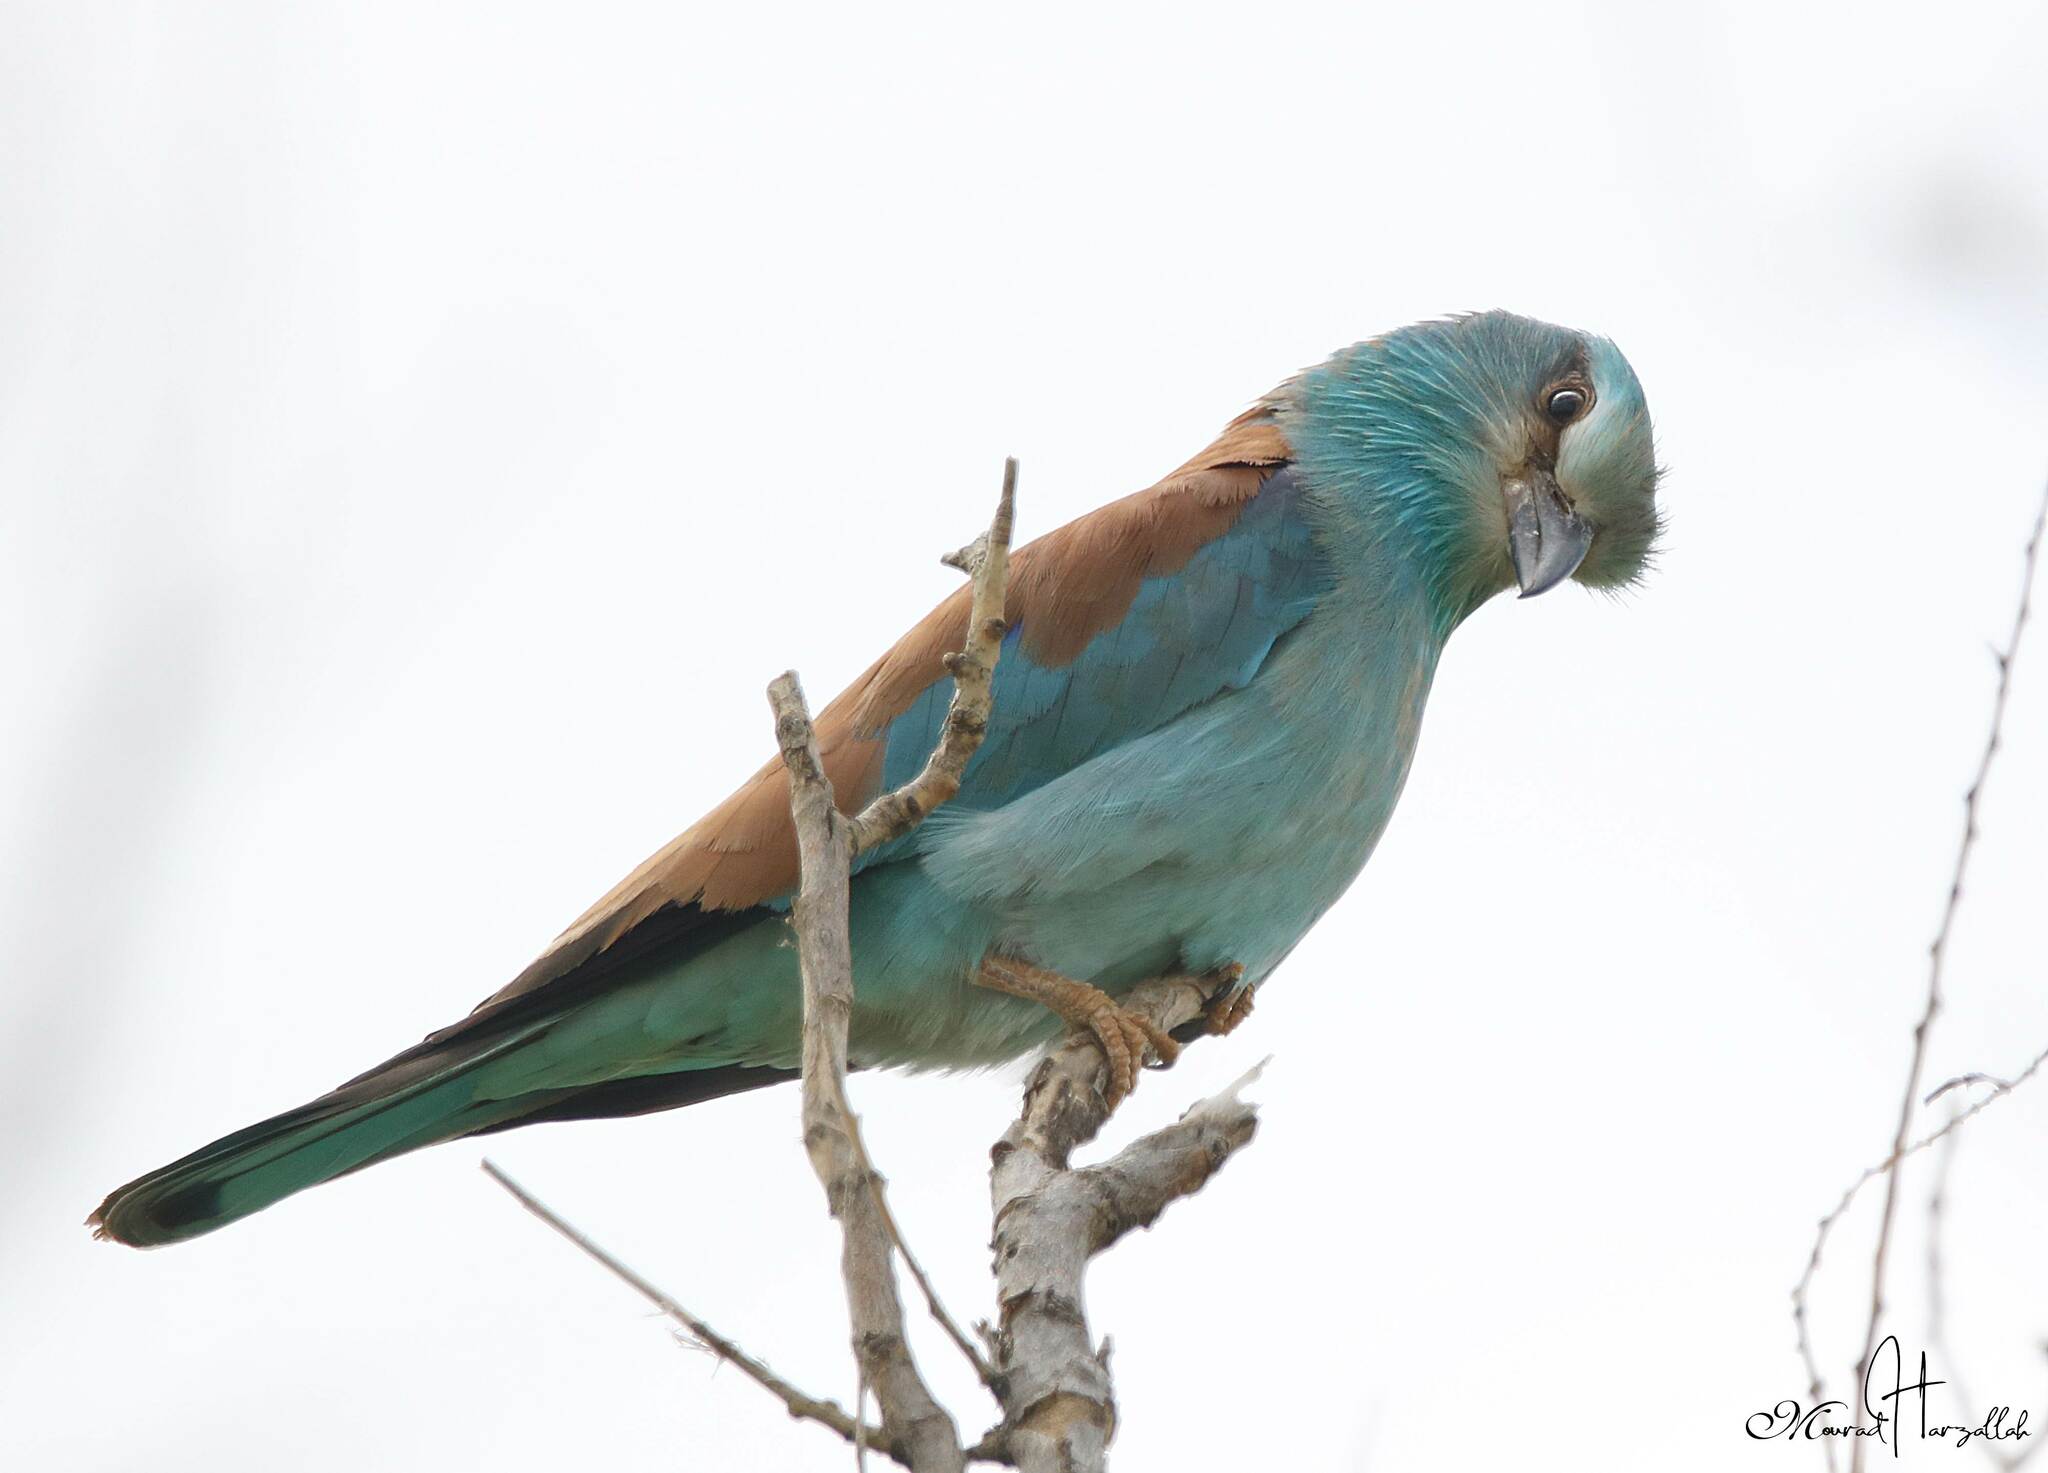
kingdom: Animalia
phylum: Chordata
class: Aves
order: Coraciiformes
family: Coraciidae
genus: Coracias
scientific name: Coracias garrulus
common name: European roller
